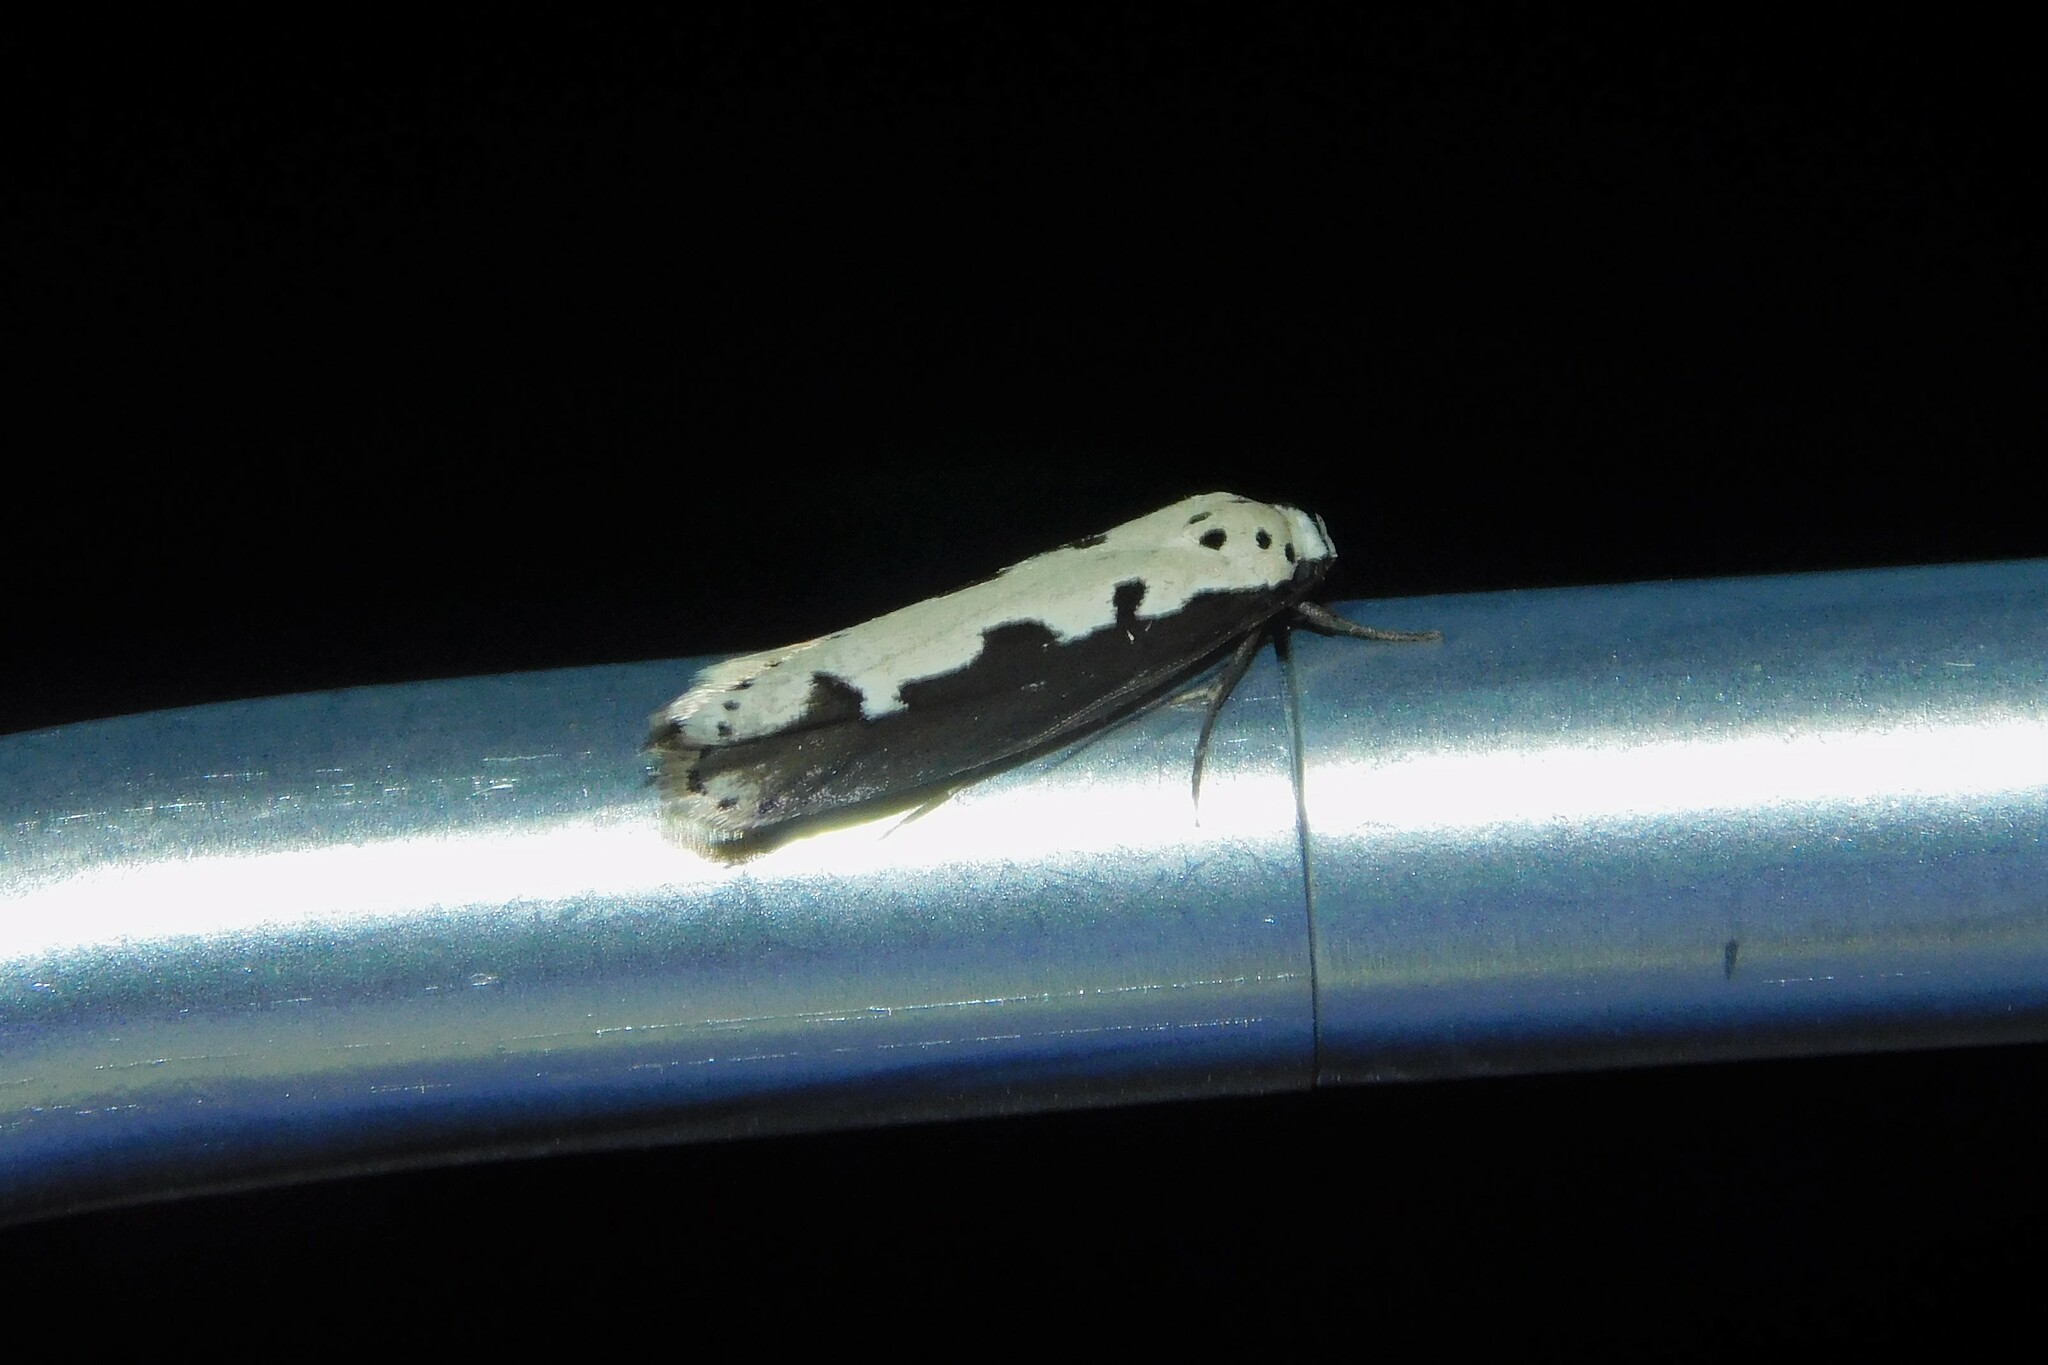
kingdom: Animalia
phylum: Arthropoda
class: Insecta
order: Lepidoptera
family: Ethmiidae
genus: Ethmia
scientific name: Ethmia bipunctella
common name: Bordered ermel
